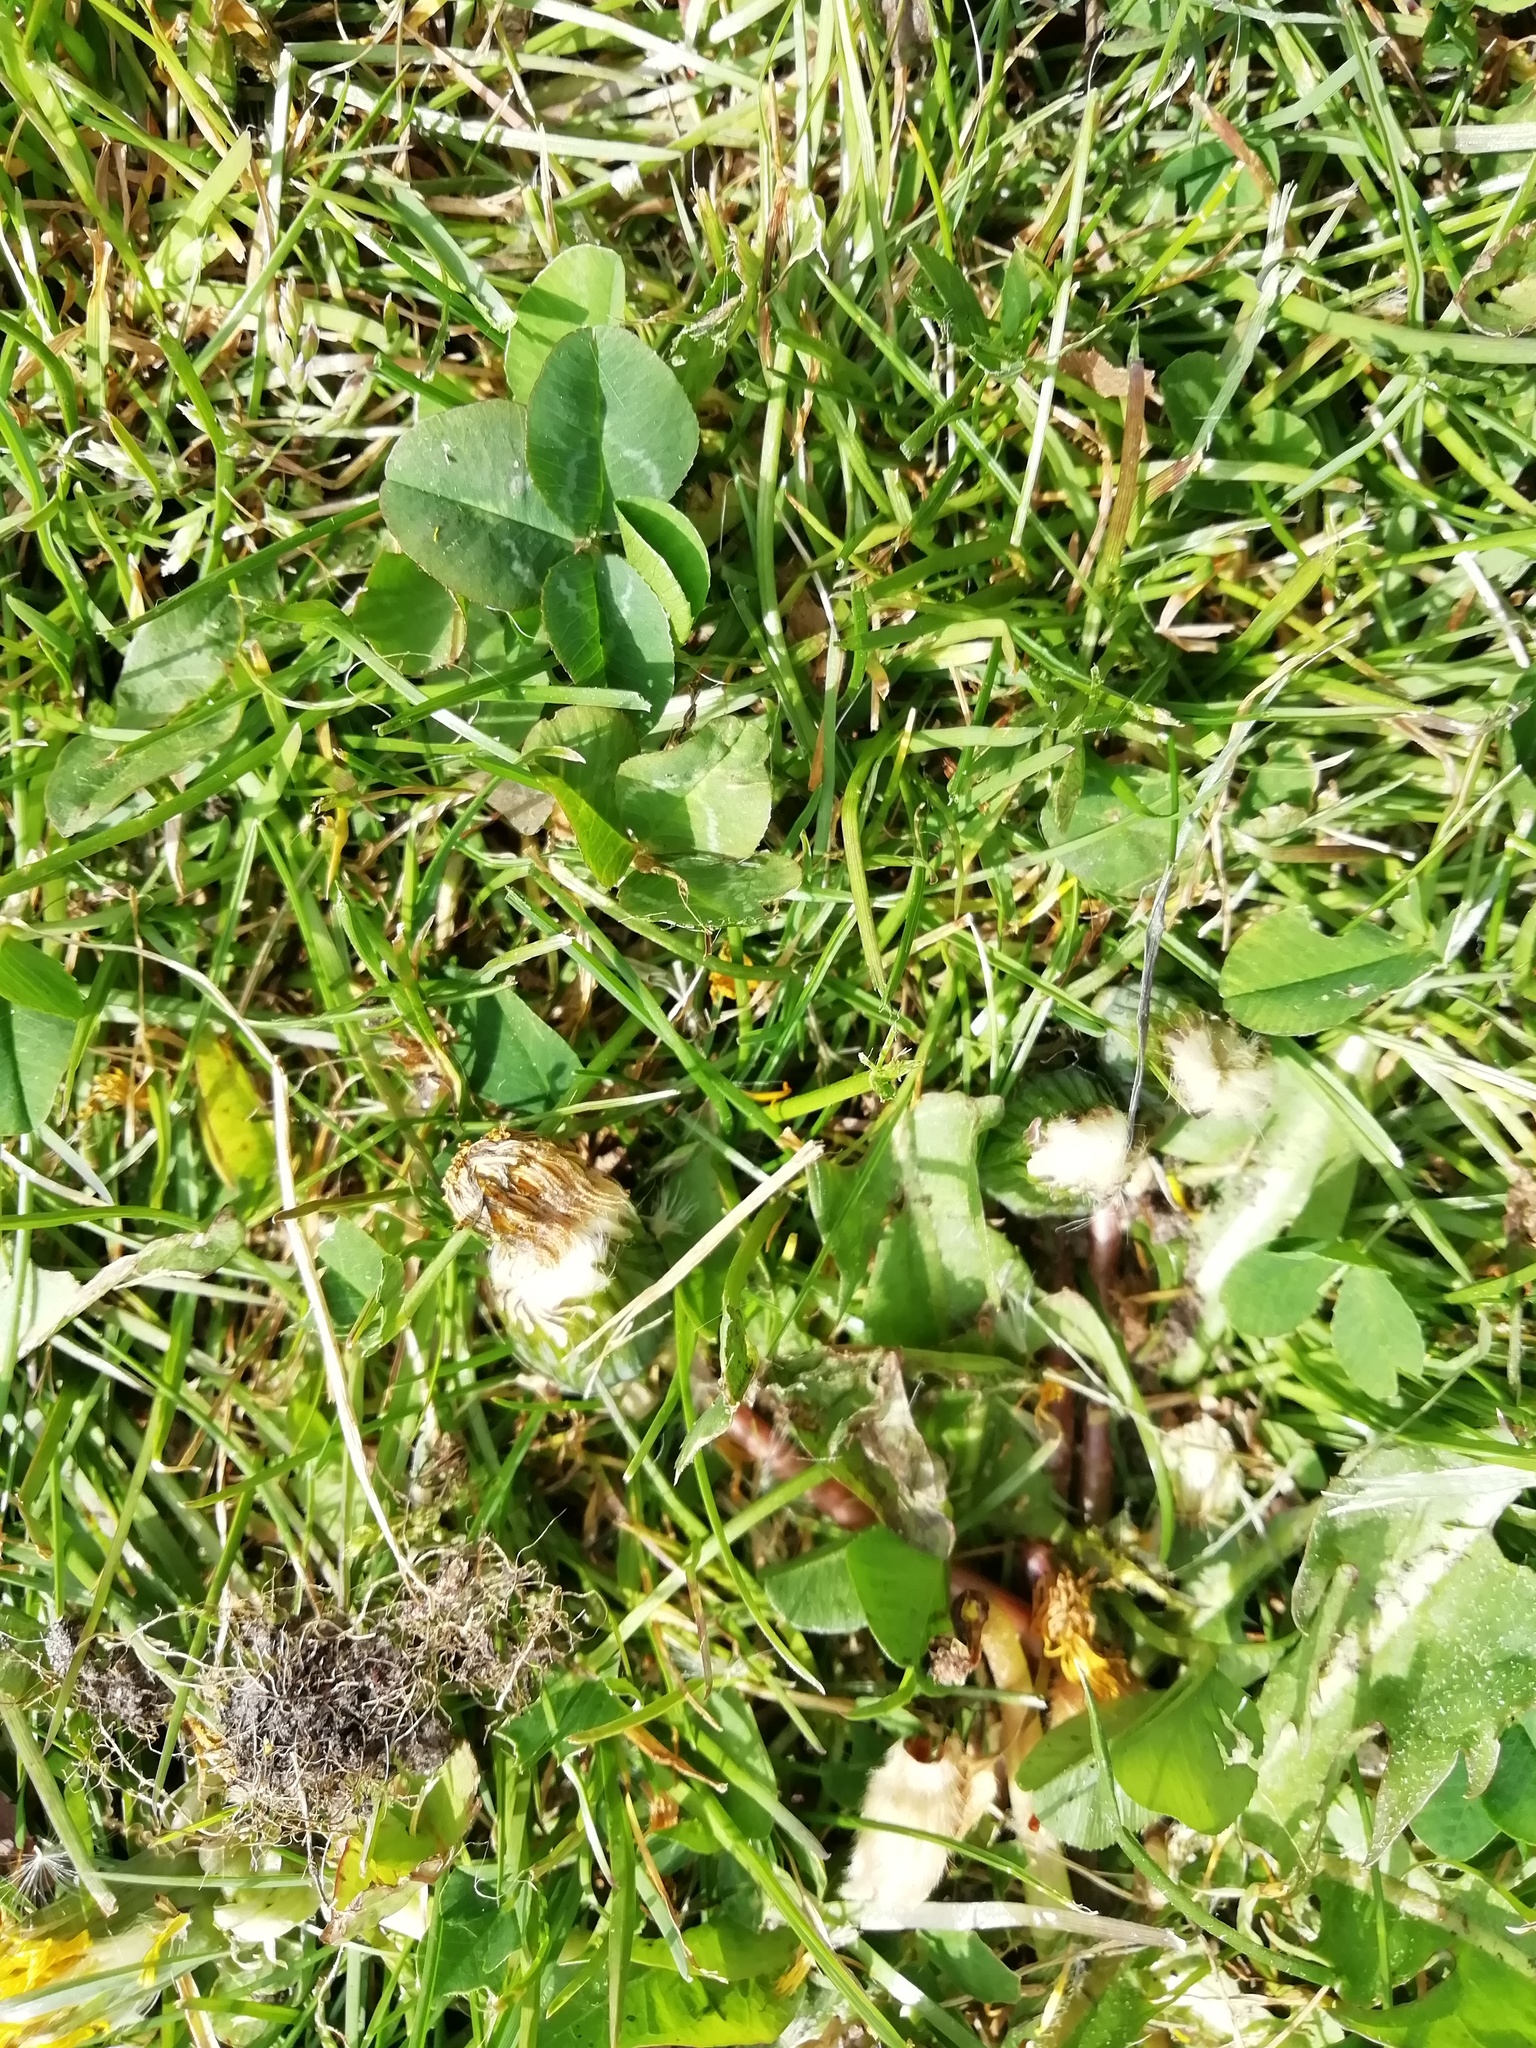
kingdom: Plantae
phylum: Tracheophyta
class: Magnoliopsida
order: Fabales
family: Fabaceae
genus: Trifolium
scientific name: Trifolium repens
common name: White clover
